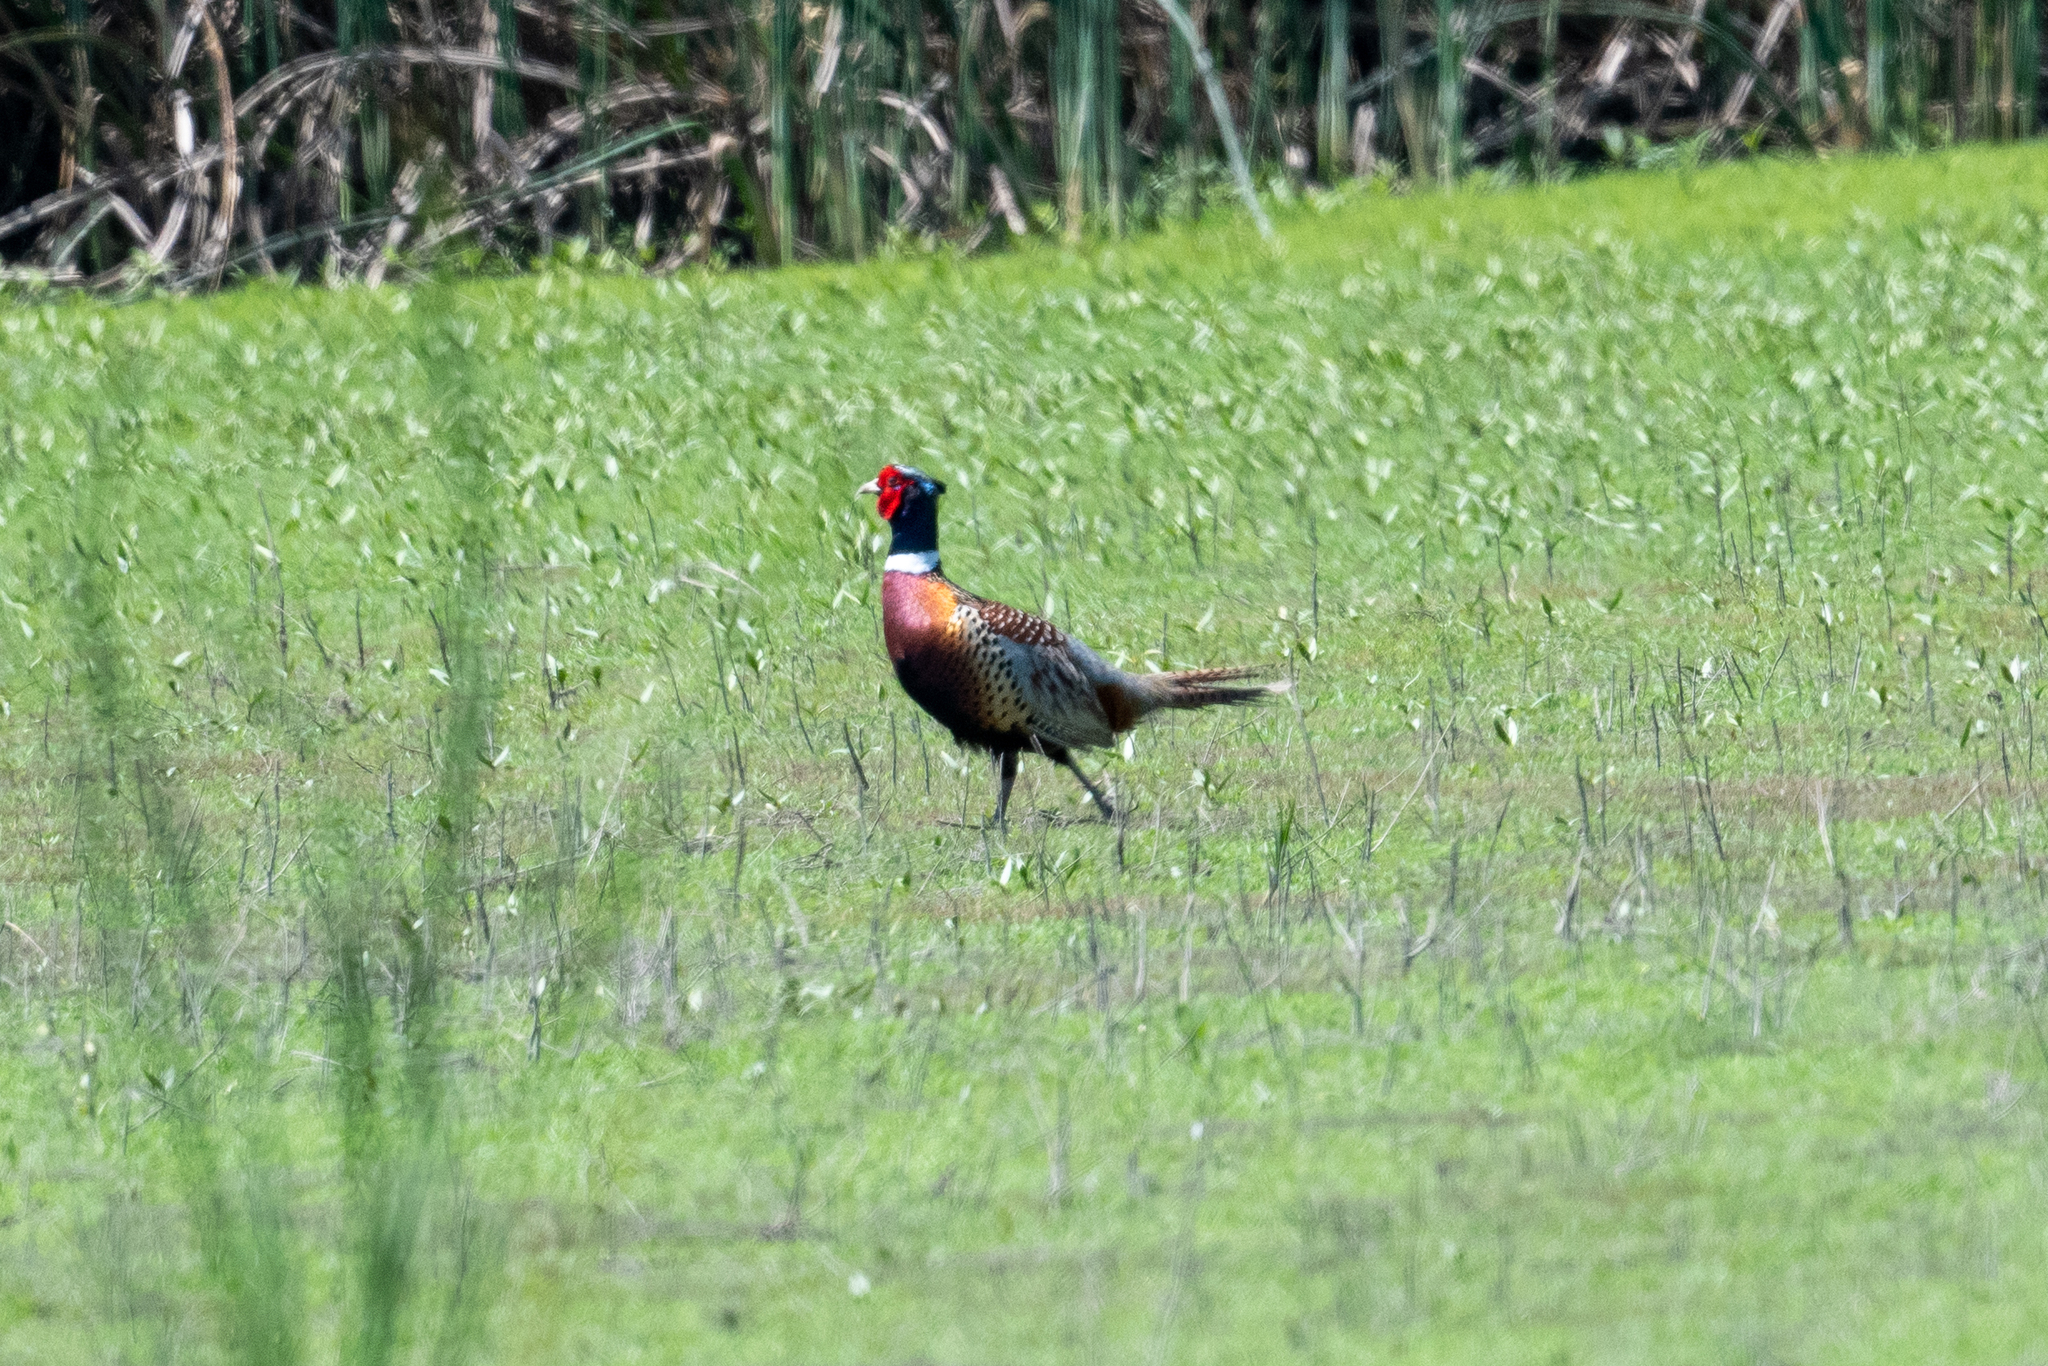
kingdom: Animalia
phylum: Chordata
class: Aves
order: Galliformes
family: Phasianidae
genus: Phasianus
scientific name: Phasianus colchicus
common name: Common pheasant
